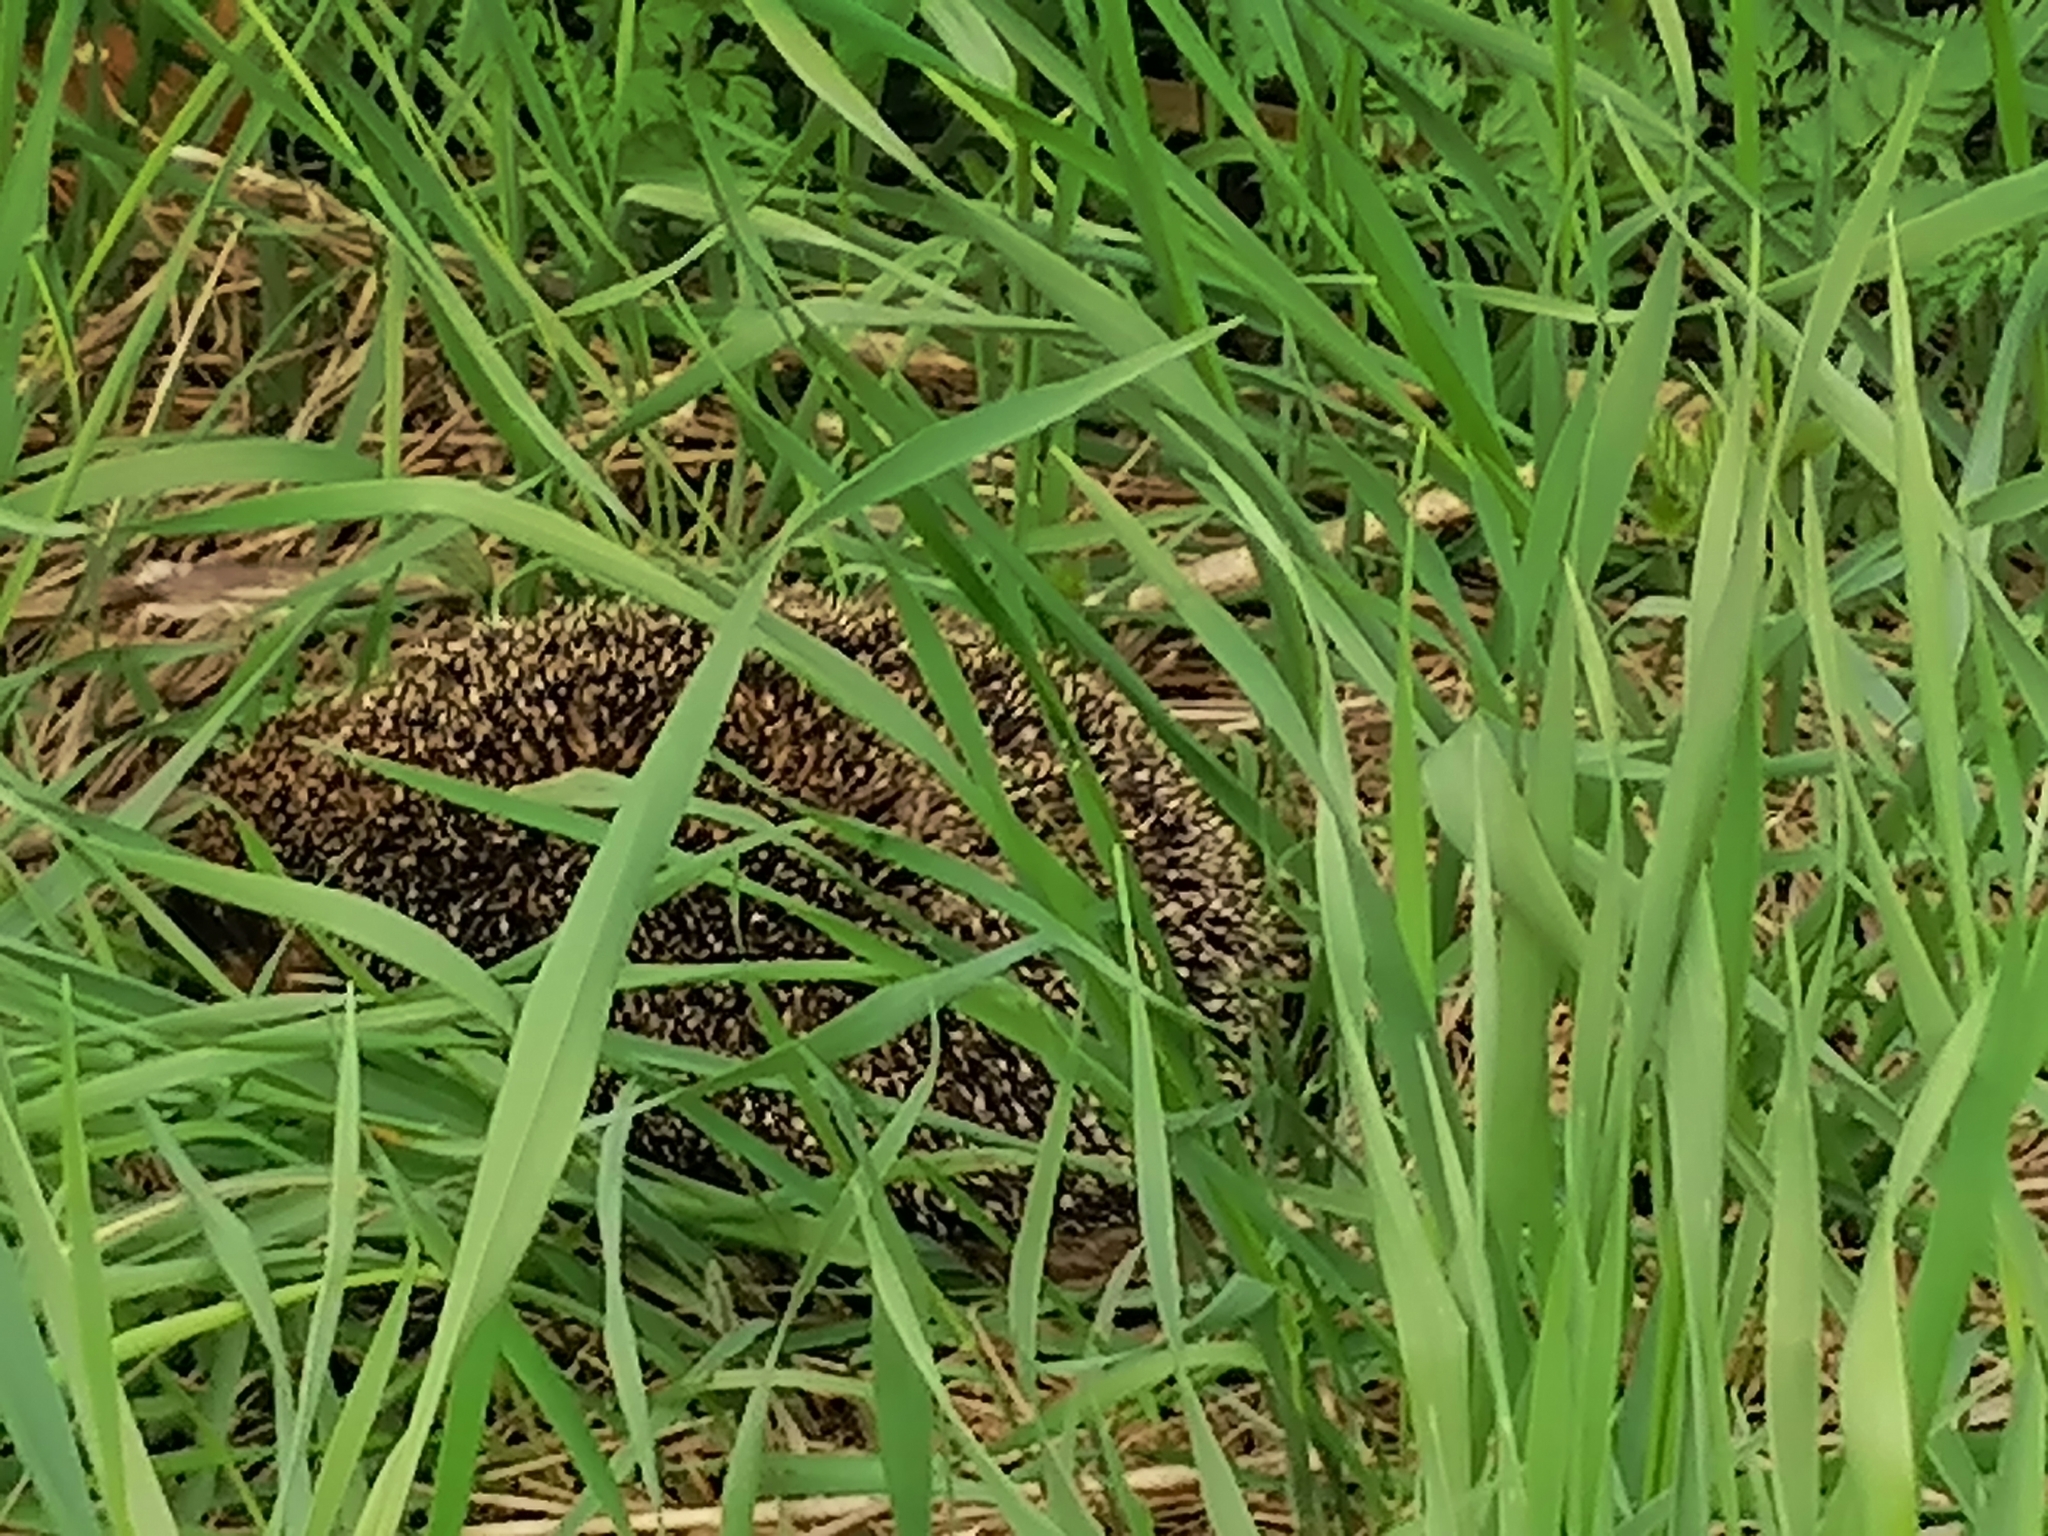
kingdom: Animalia
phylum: Chordata
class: Mammalia
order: Erinaceomorpha
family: Erinaceidae
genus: Erinaceus
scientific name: Erinaceus roumanicus
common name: Northern white-breasted hedgehog
